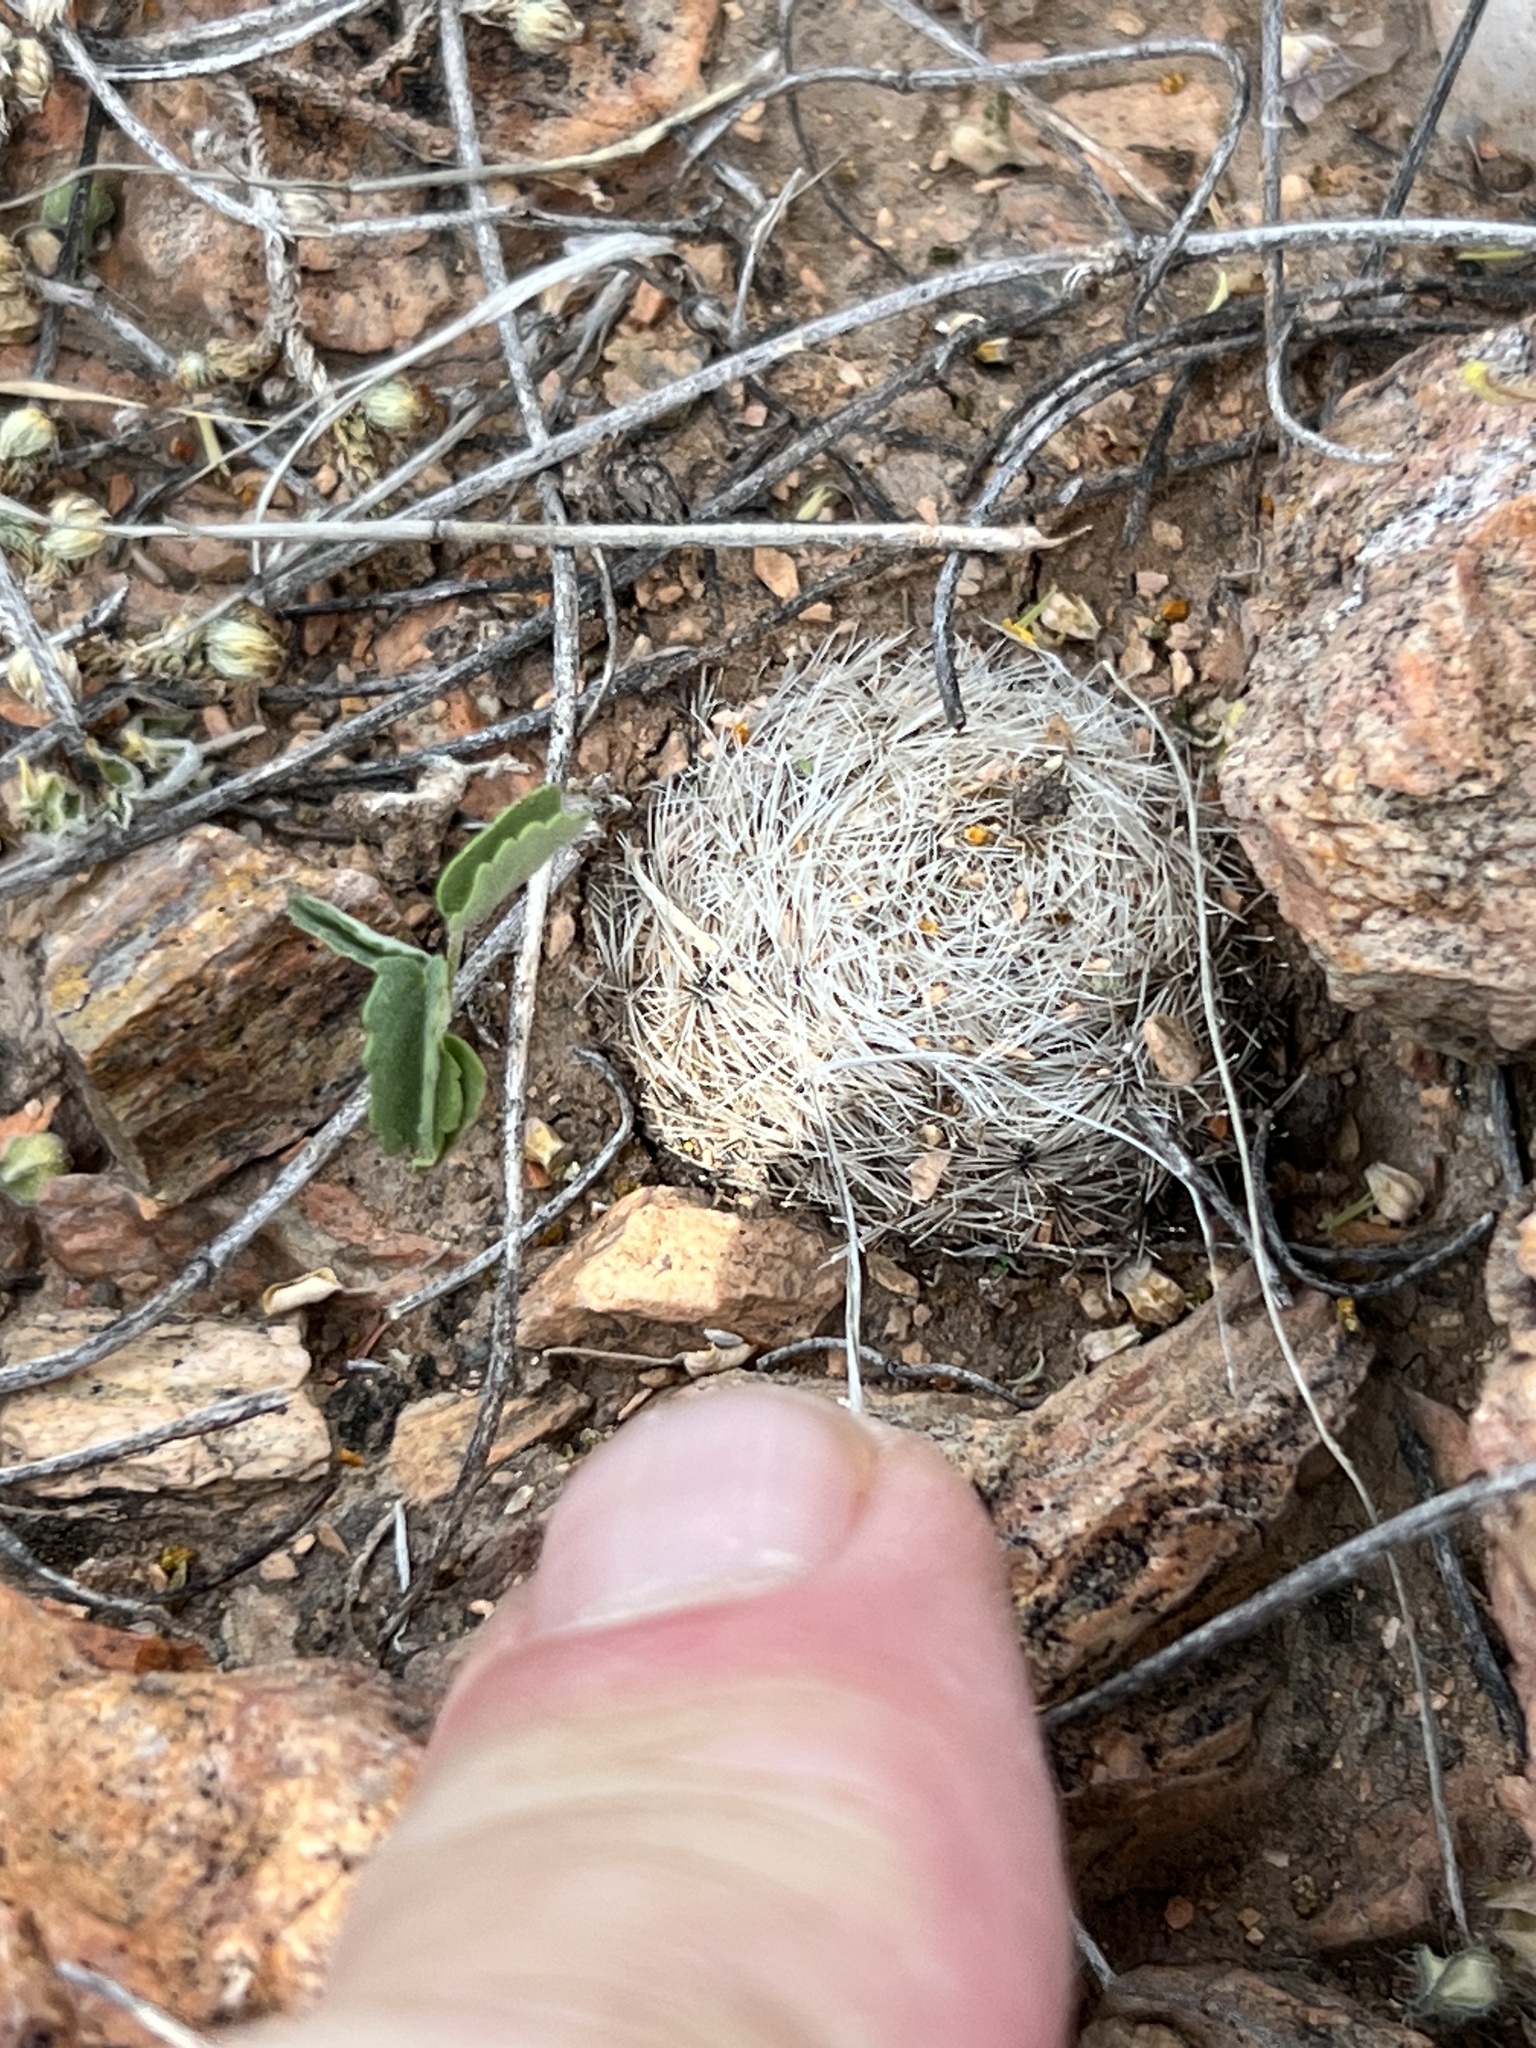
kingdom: Plantae
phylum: Tracheophyta
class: Magnoliopsida
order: Caryophyllales
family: Cactaceae
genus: Mammillaria
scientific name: Mammillaria lasiacantha
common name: Lace-spine nipple cactus
